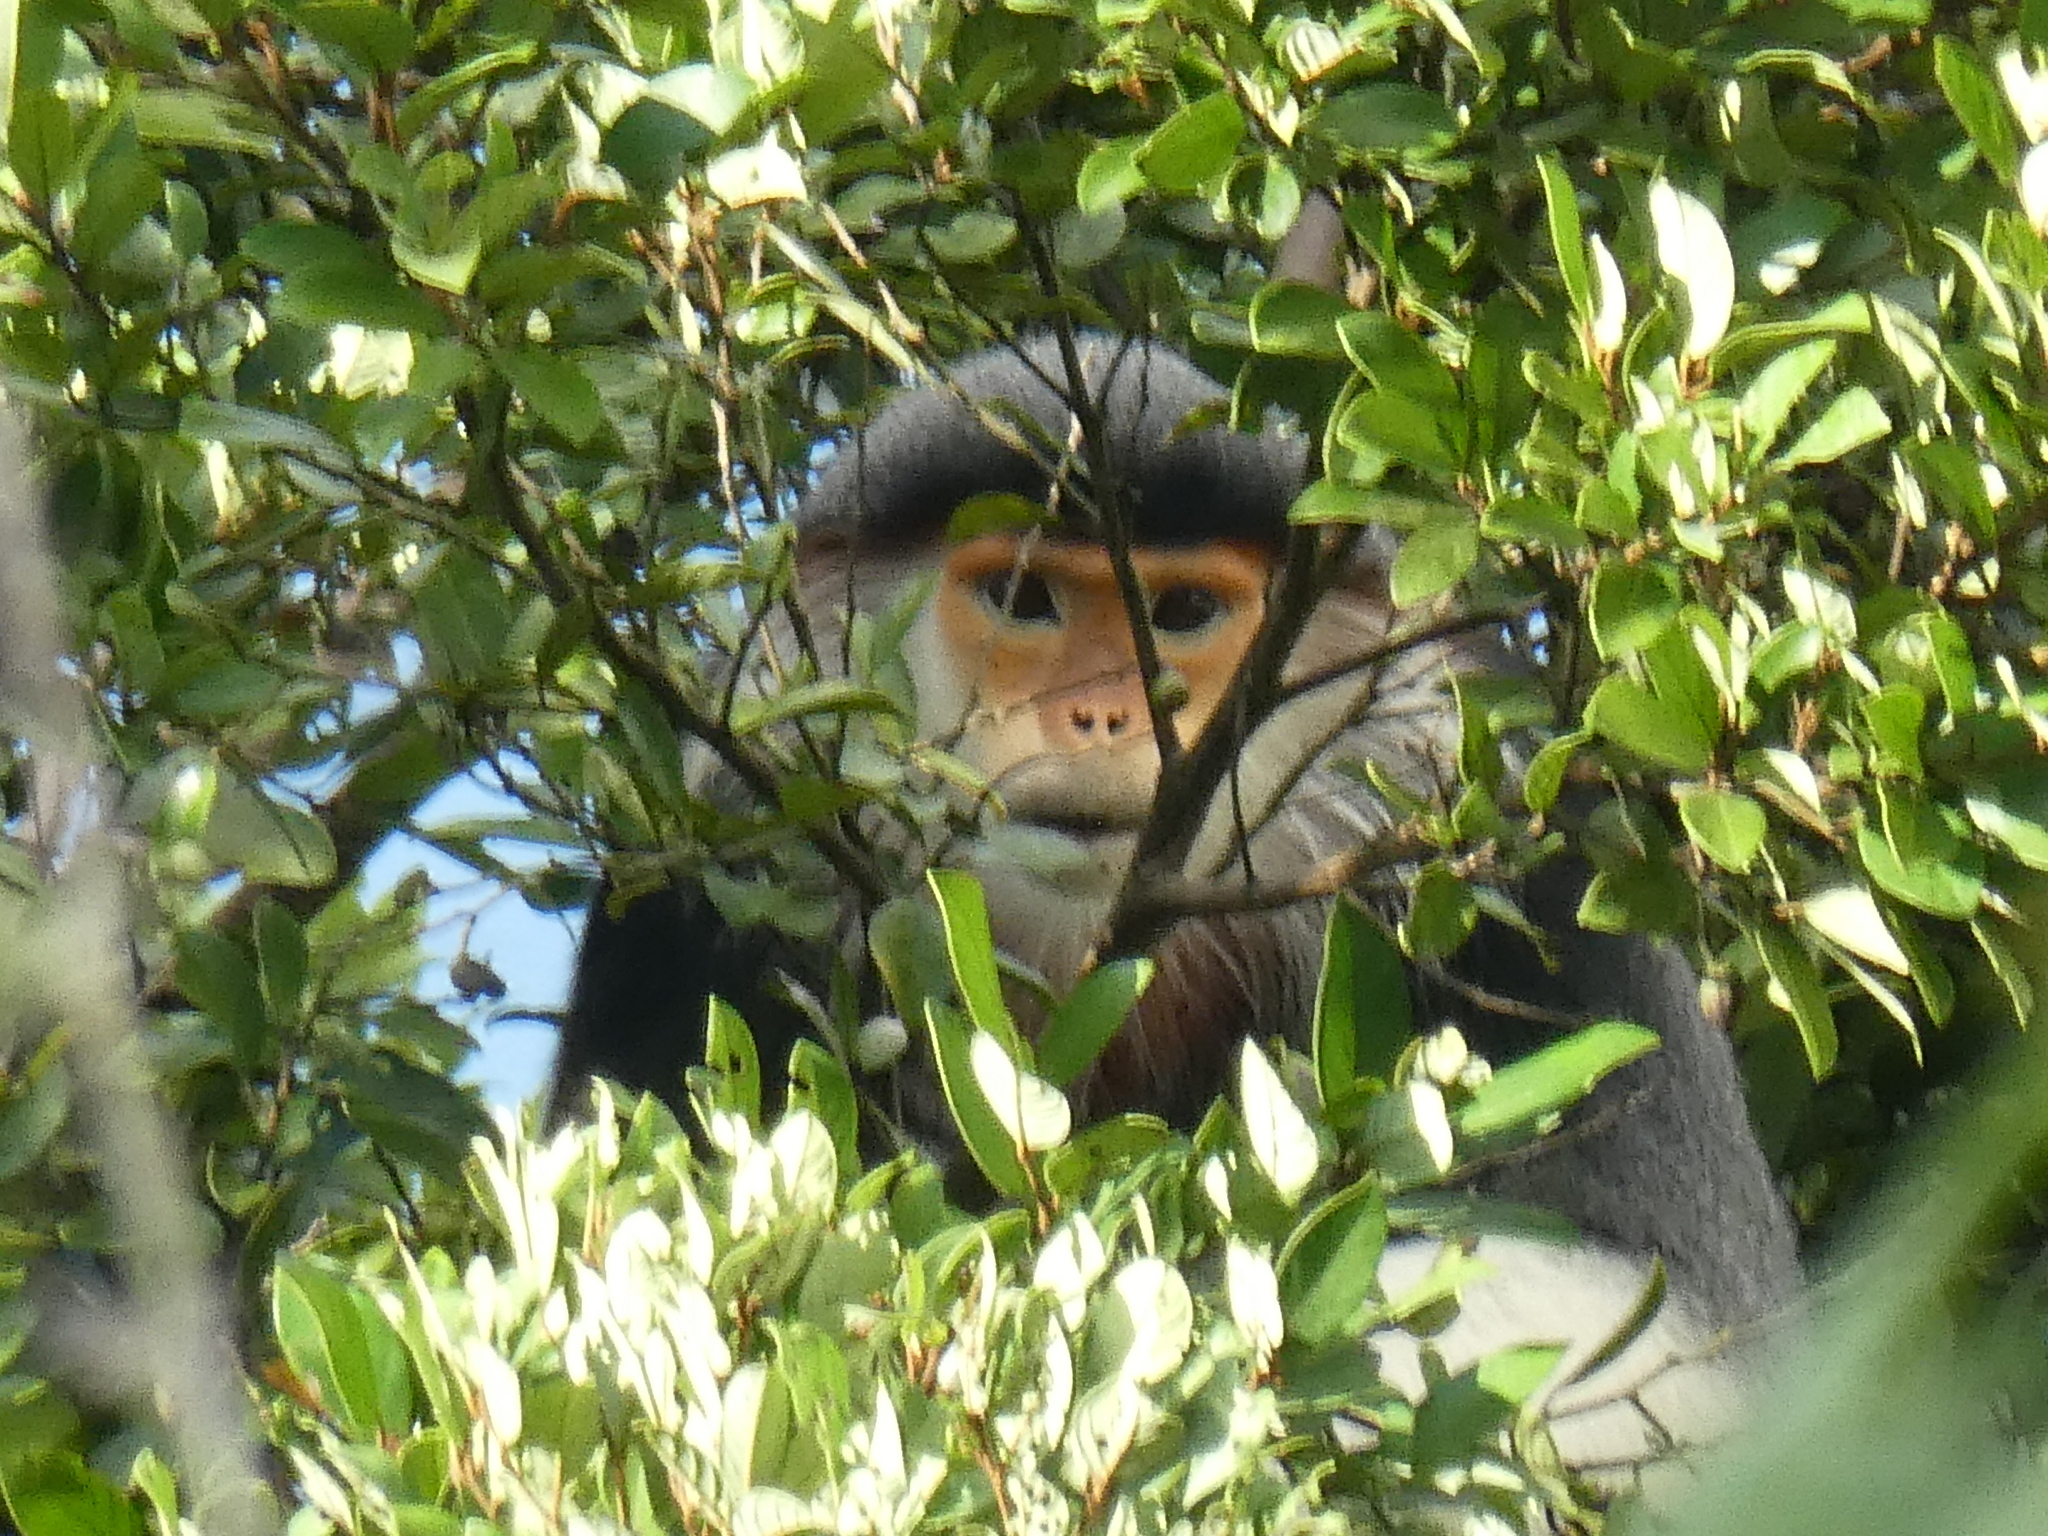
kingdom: Animalia
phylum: Chordata
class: Mammalia
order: Primates
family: Cercopithecidae
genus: Pygathrix
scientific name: Pygathrix nemaeus
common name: Red-shanked douc
